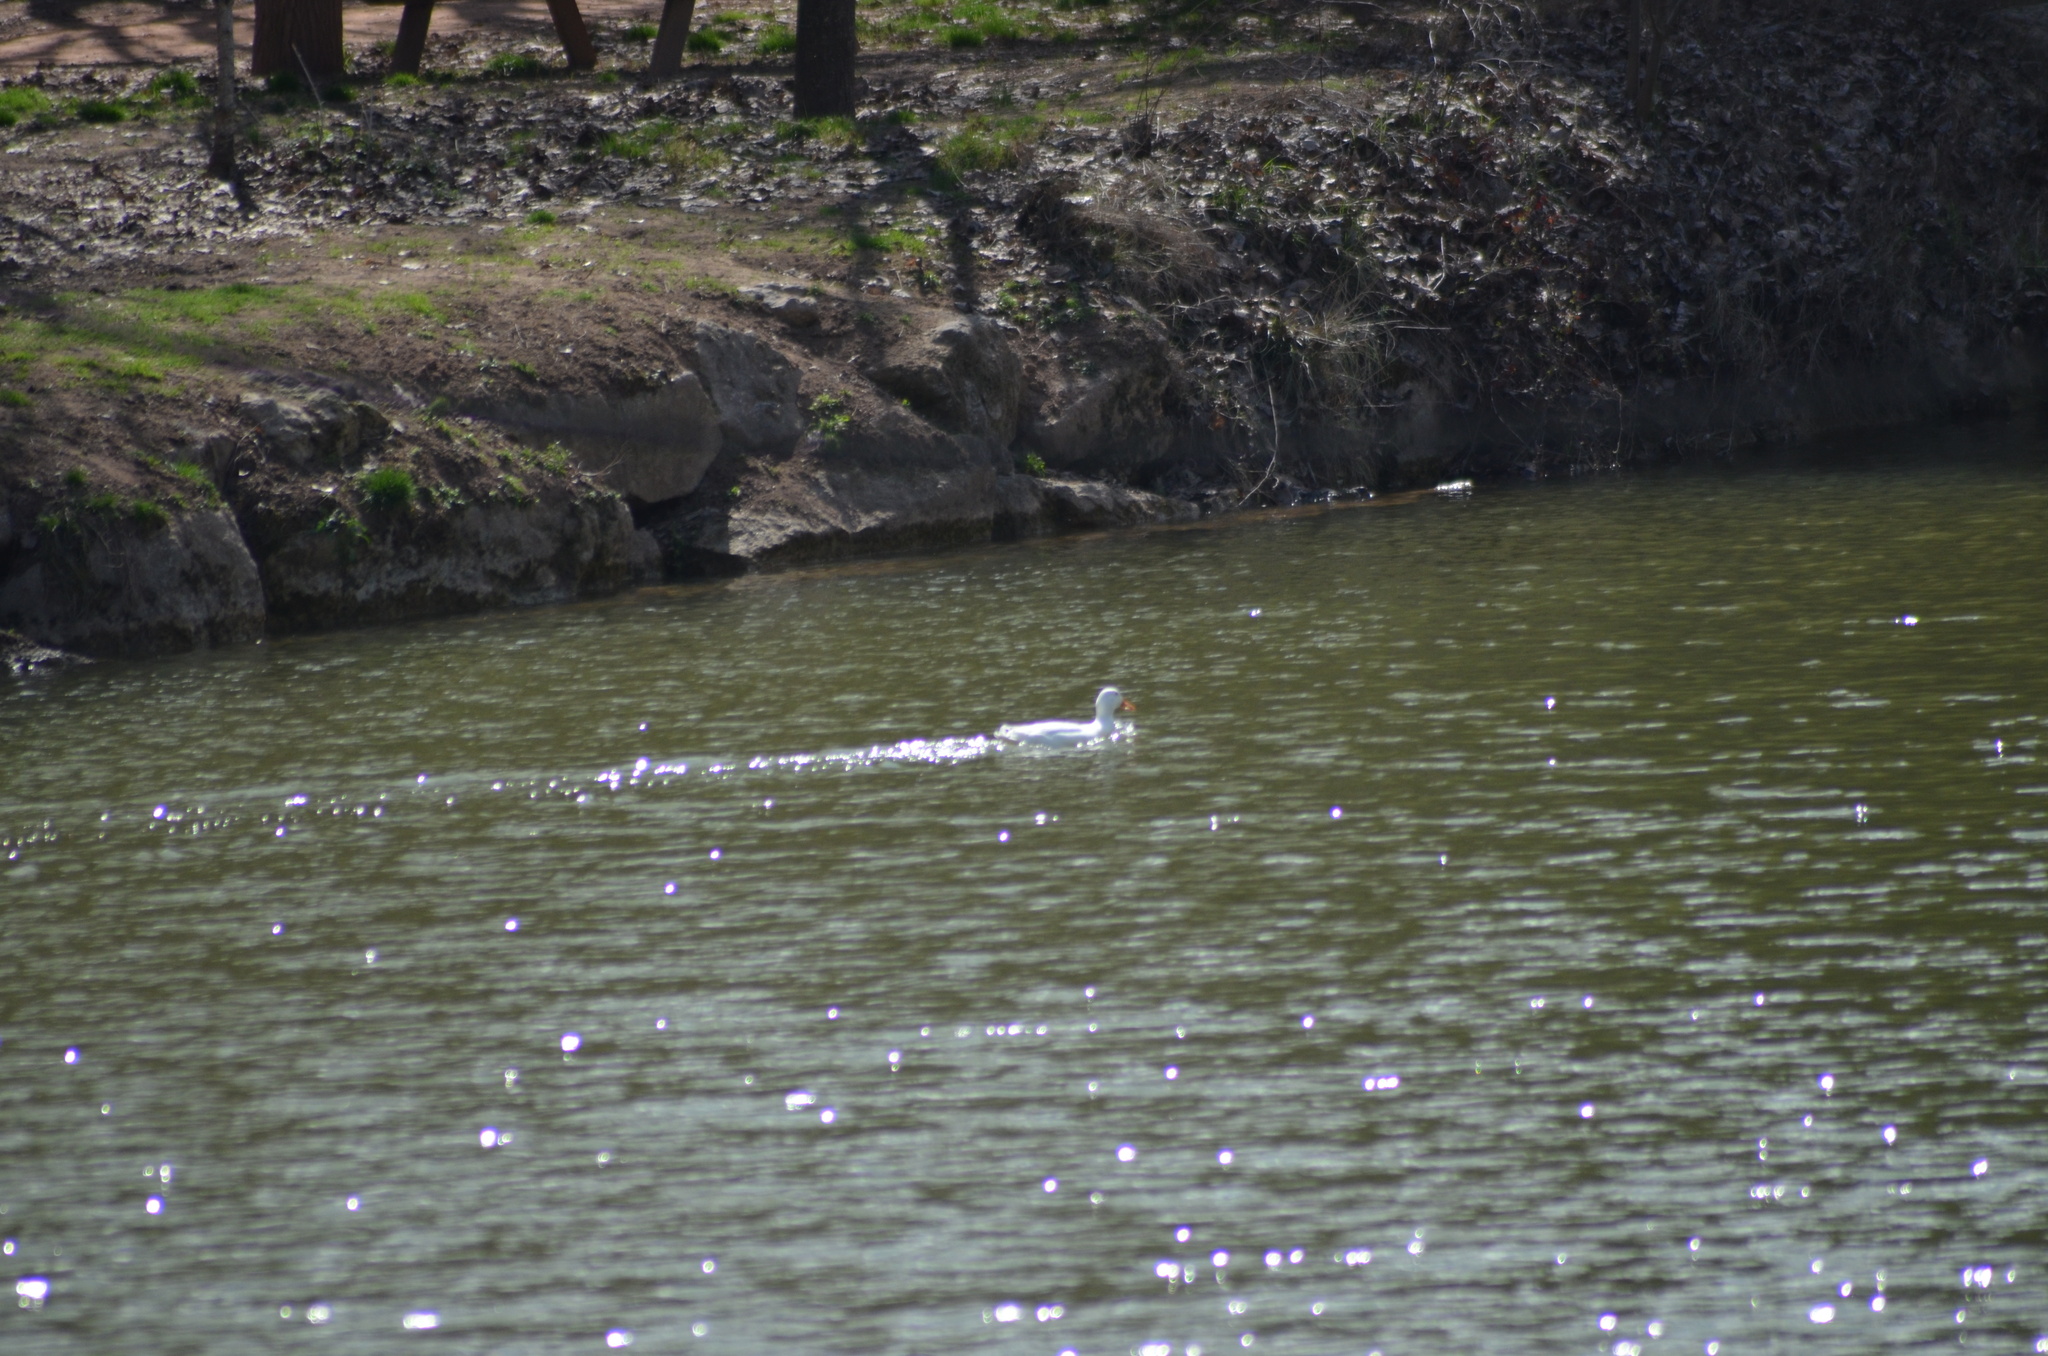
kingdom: Animalia
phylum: Chordata
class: Aves
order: Anseriformes
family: Anatidae
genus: Anas
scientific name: Anas platyrhynchos
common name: Mallard
